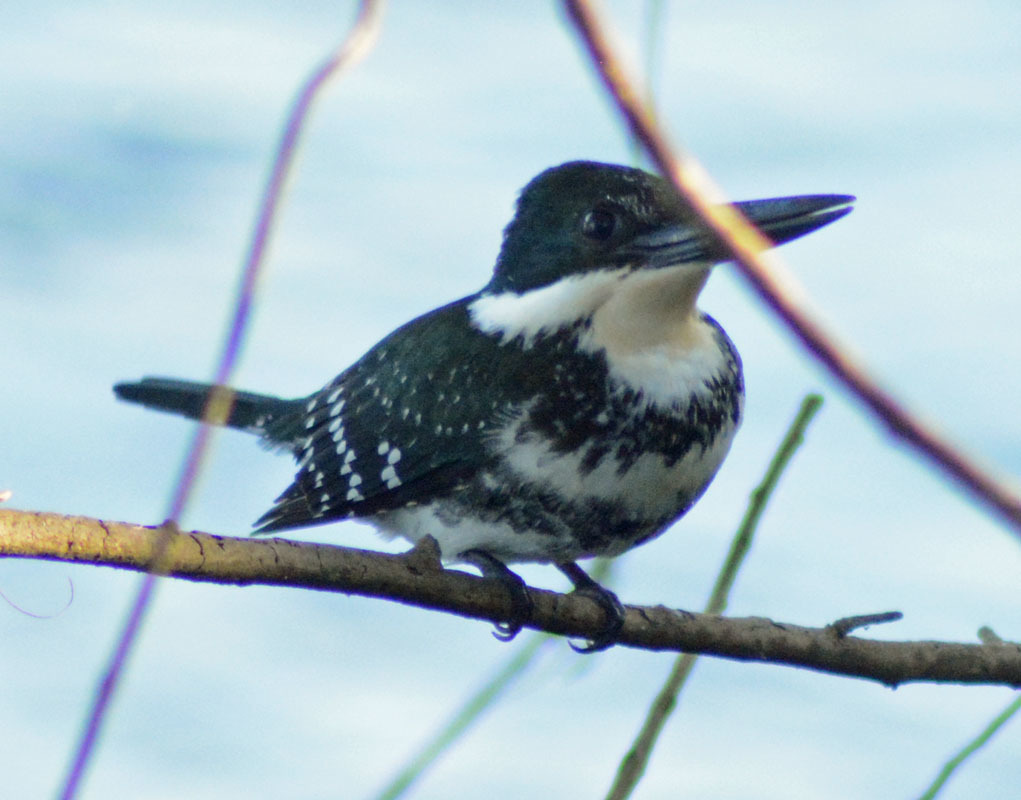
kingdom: Animalia
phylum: Chordata
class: Aves
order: Coraciiformes
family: Alcedinidae
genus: Chloroceryle
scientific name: Chloroceryle americana
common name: Green kingfisher
